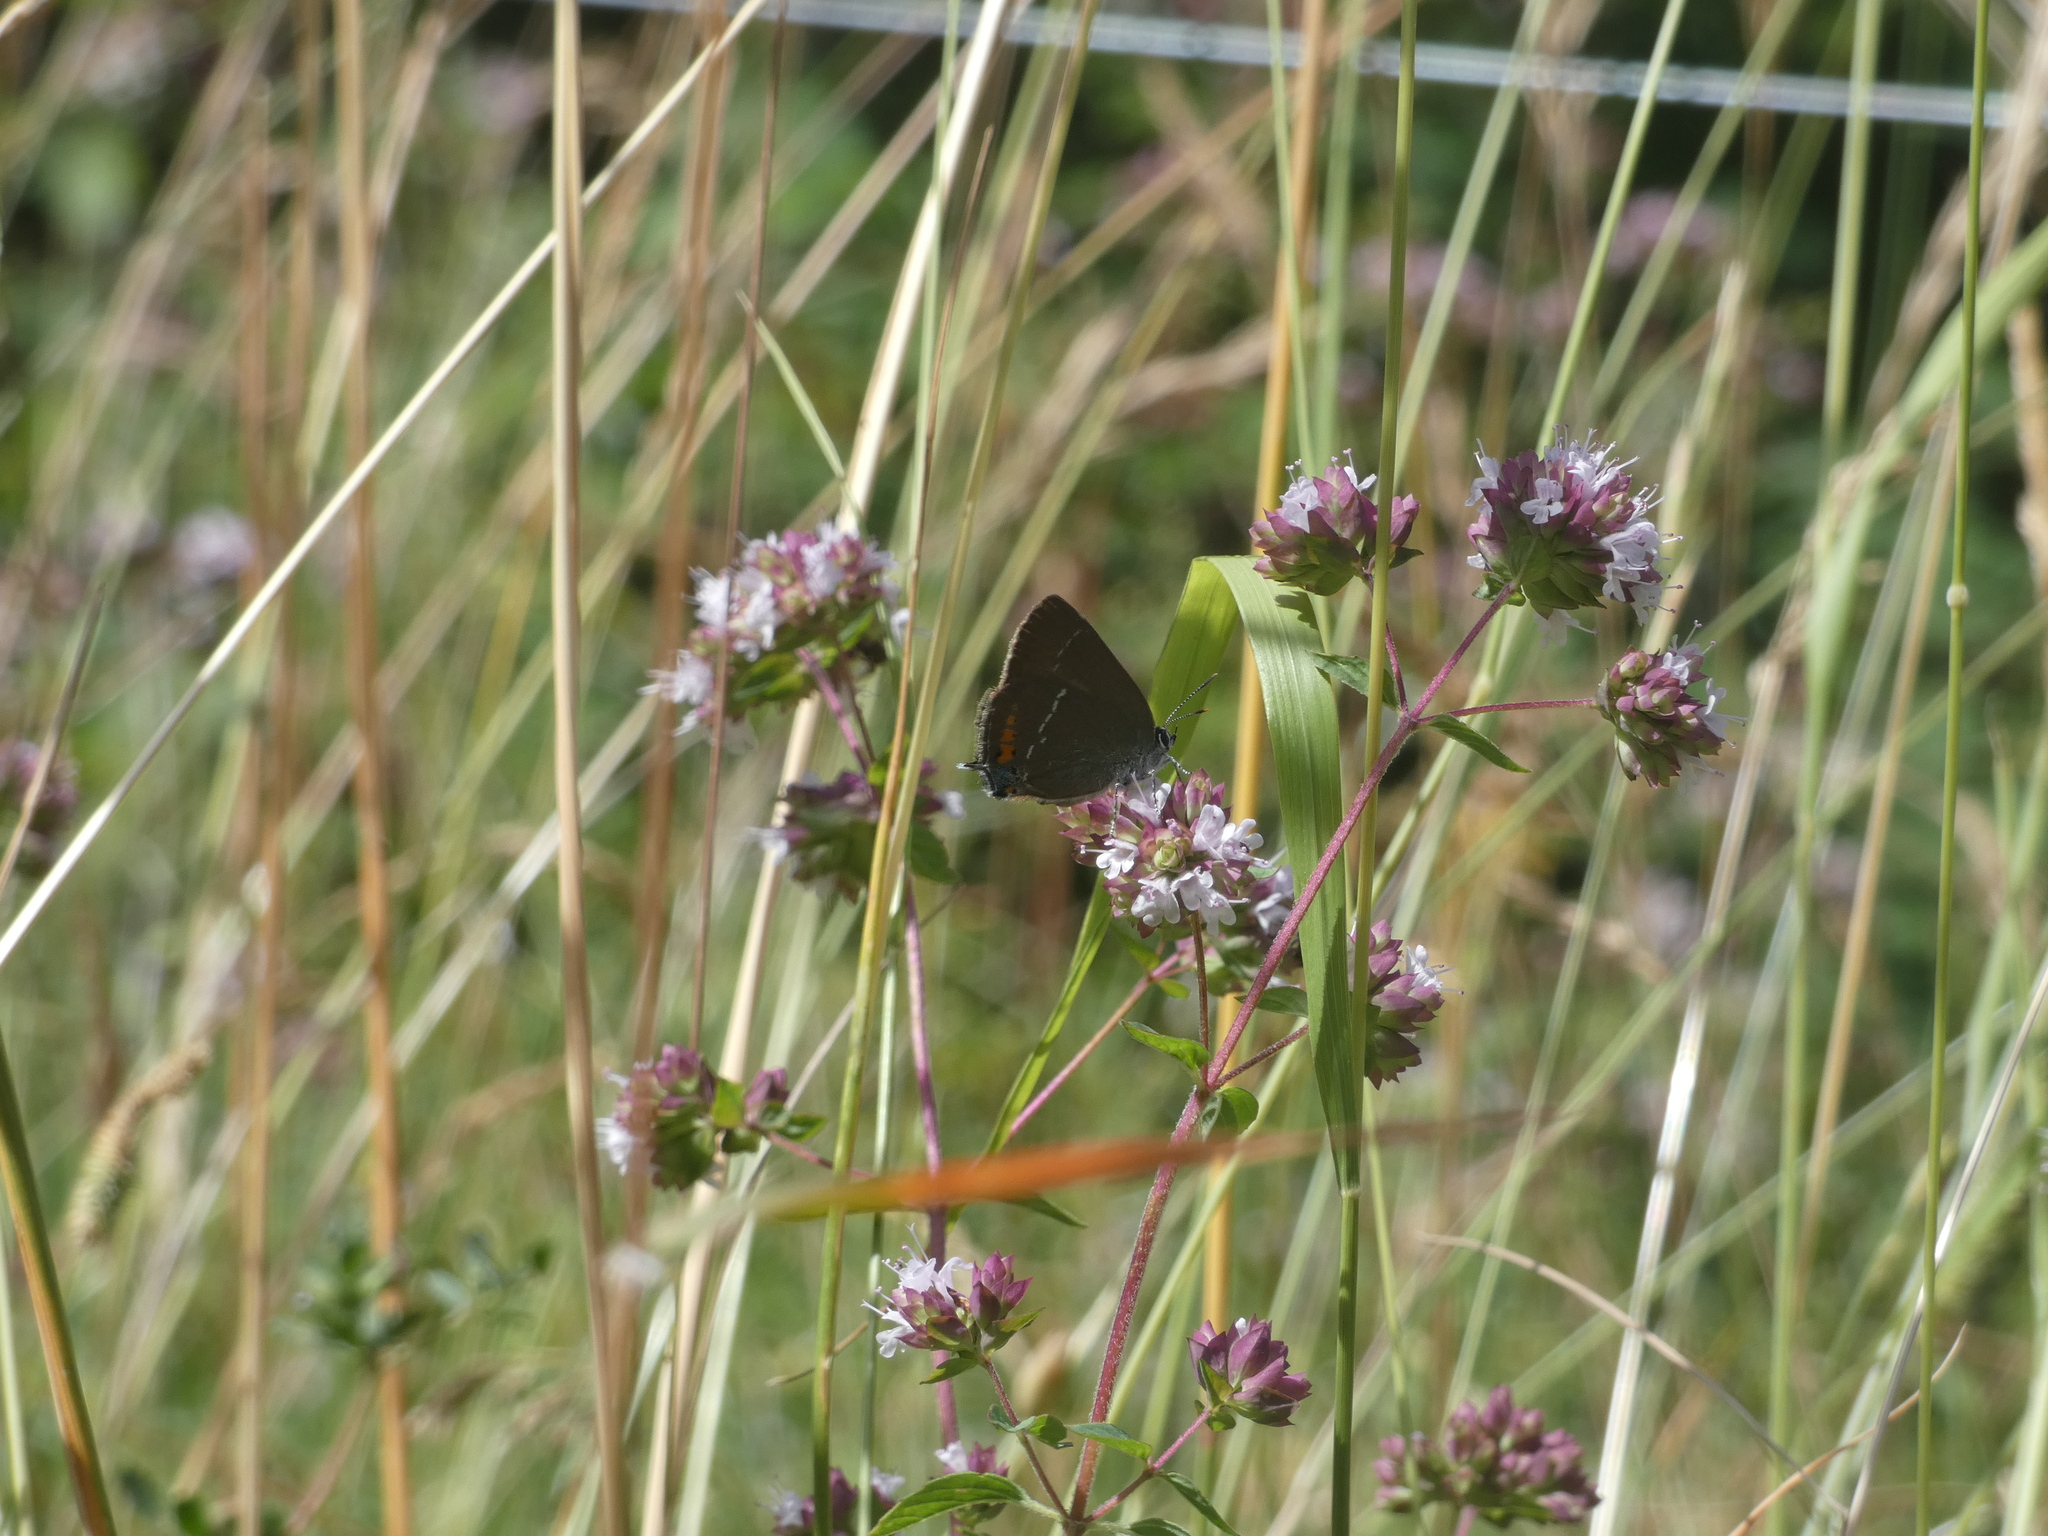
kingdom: Animalia
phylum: Arthropoda
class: Insecta
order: Lepidoptera
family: Lycaenidae
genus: Tuttiola
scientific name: Tuttiola spini
